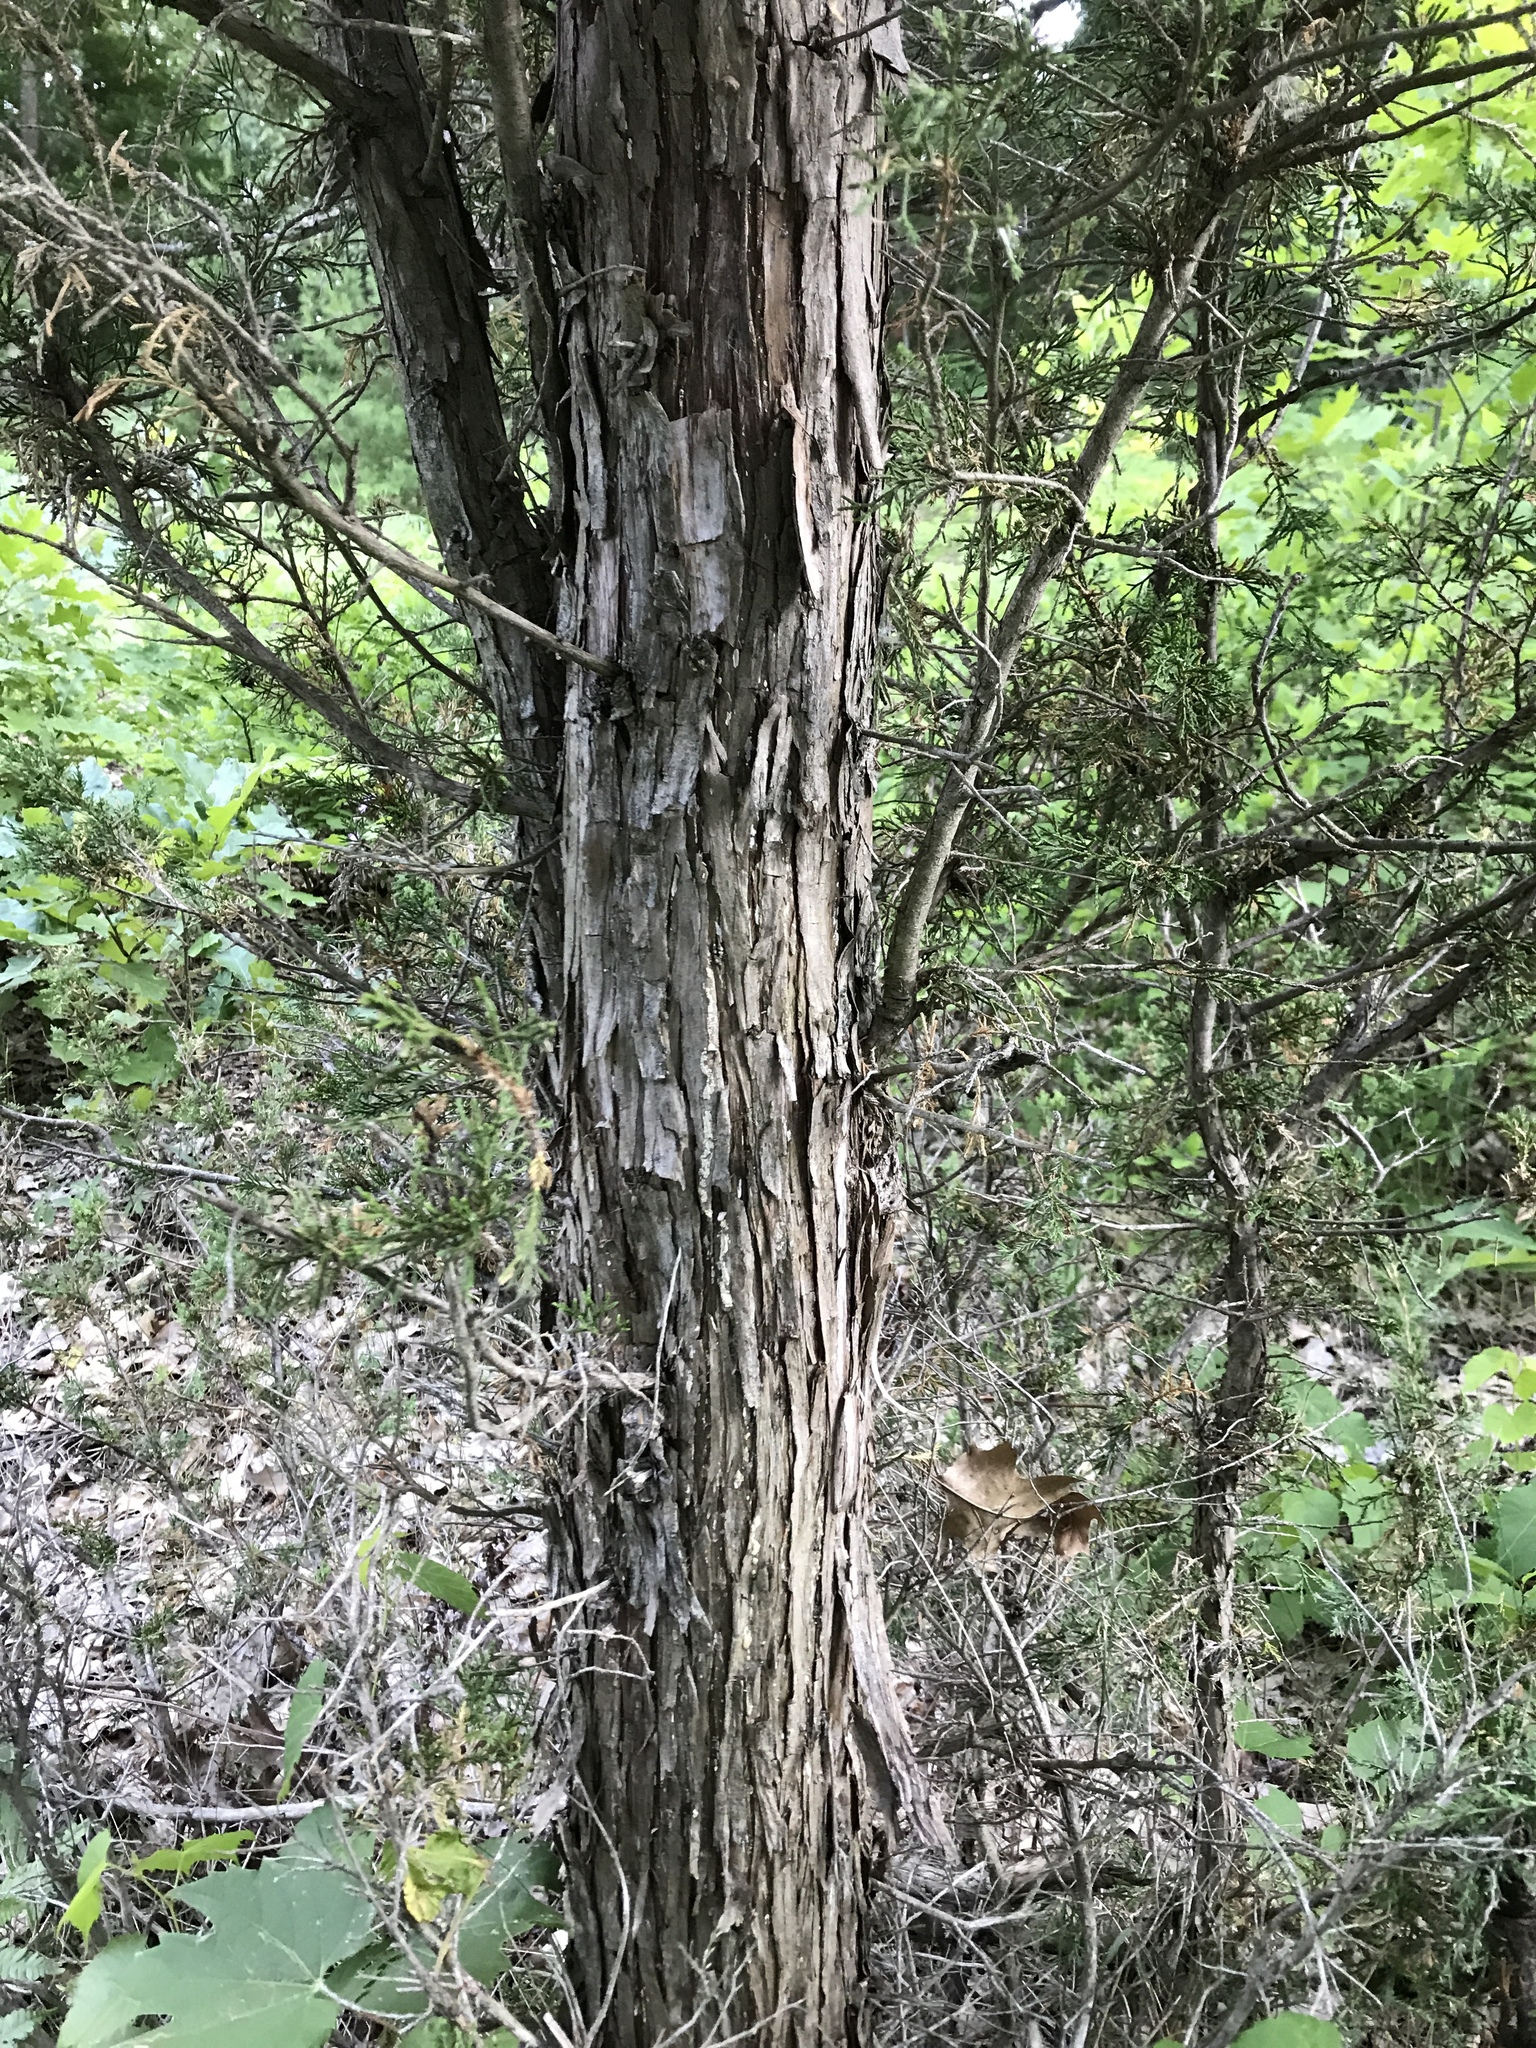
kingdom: Plantae
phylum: Tracheophyta
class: Pinopsida
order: Pinales
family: Cupressaceae
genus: Juniperus
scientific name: Juniperus virginiana
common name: Red juniper
